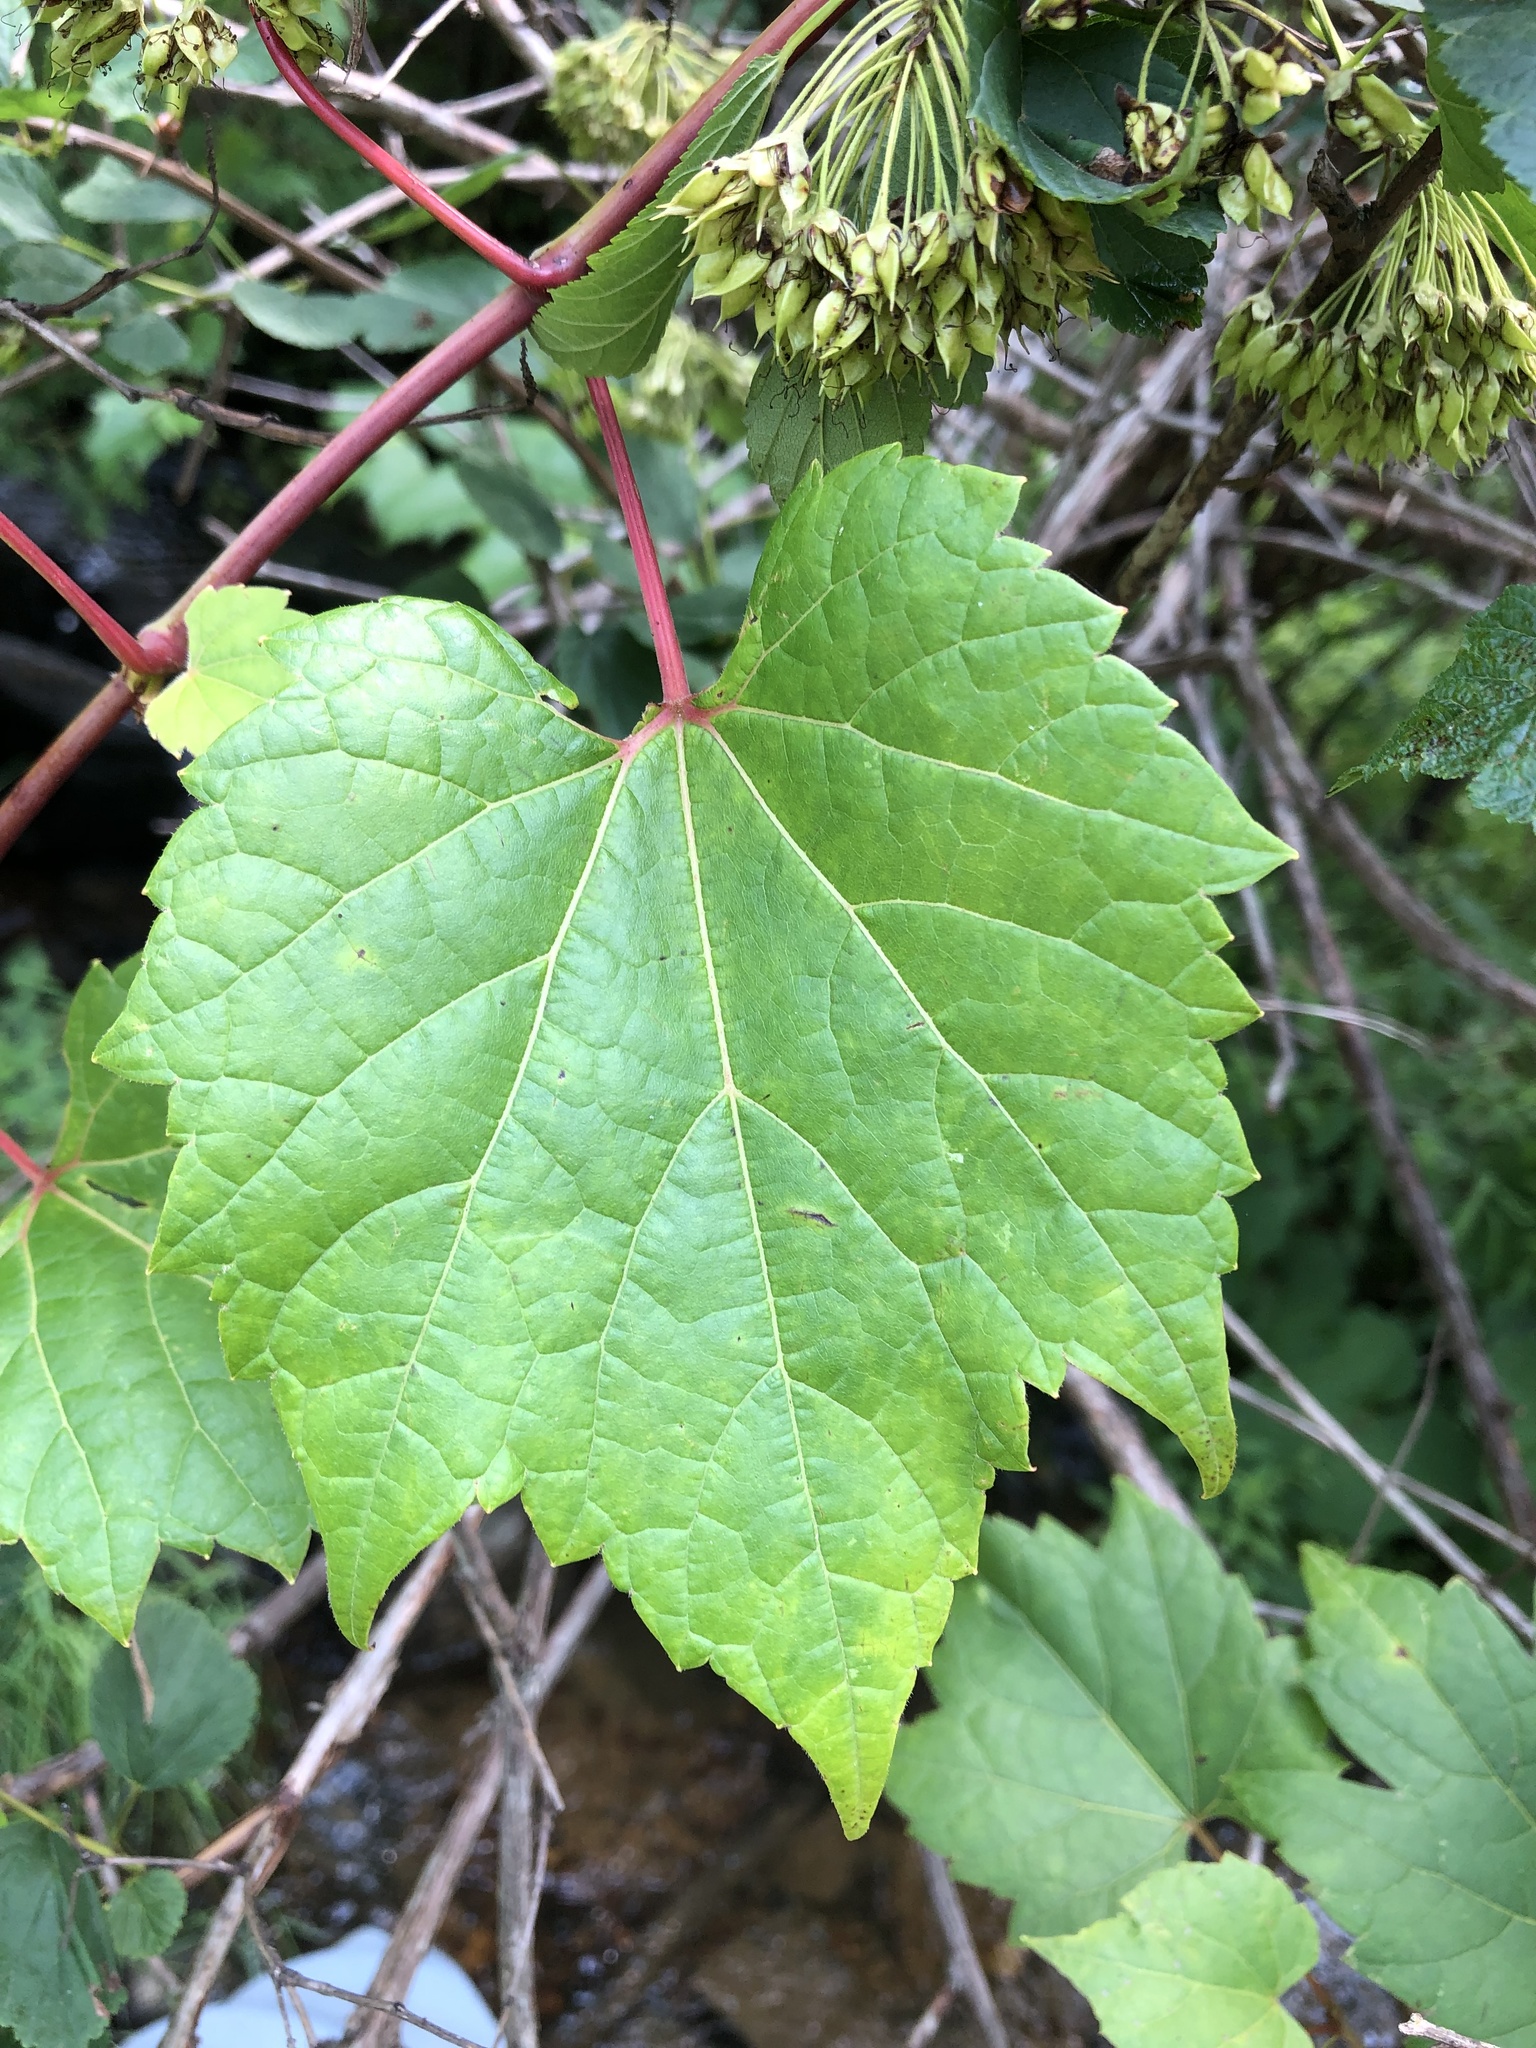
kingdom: Plantae
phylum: Tracheophyta
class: Magnoliopsida
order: Vitales
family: Vitaceae
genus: Vitis
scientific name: Vitis riparia
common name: Frost grape
